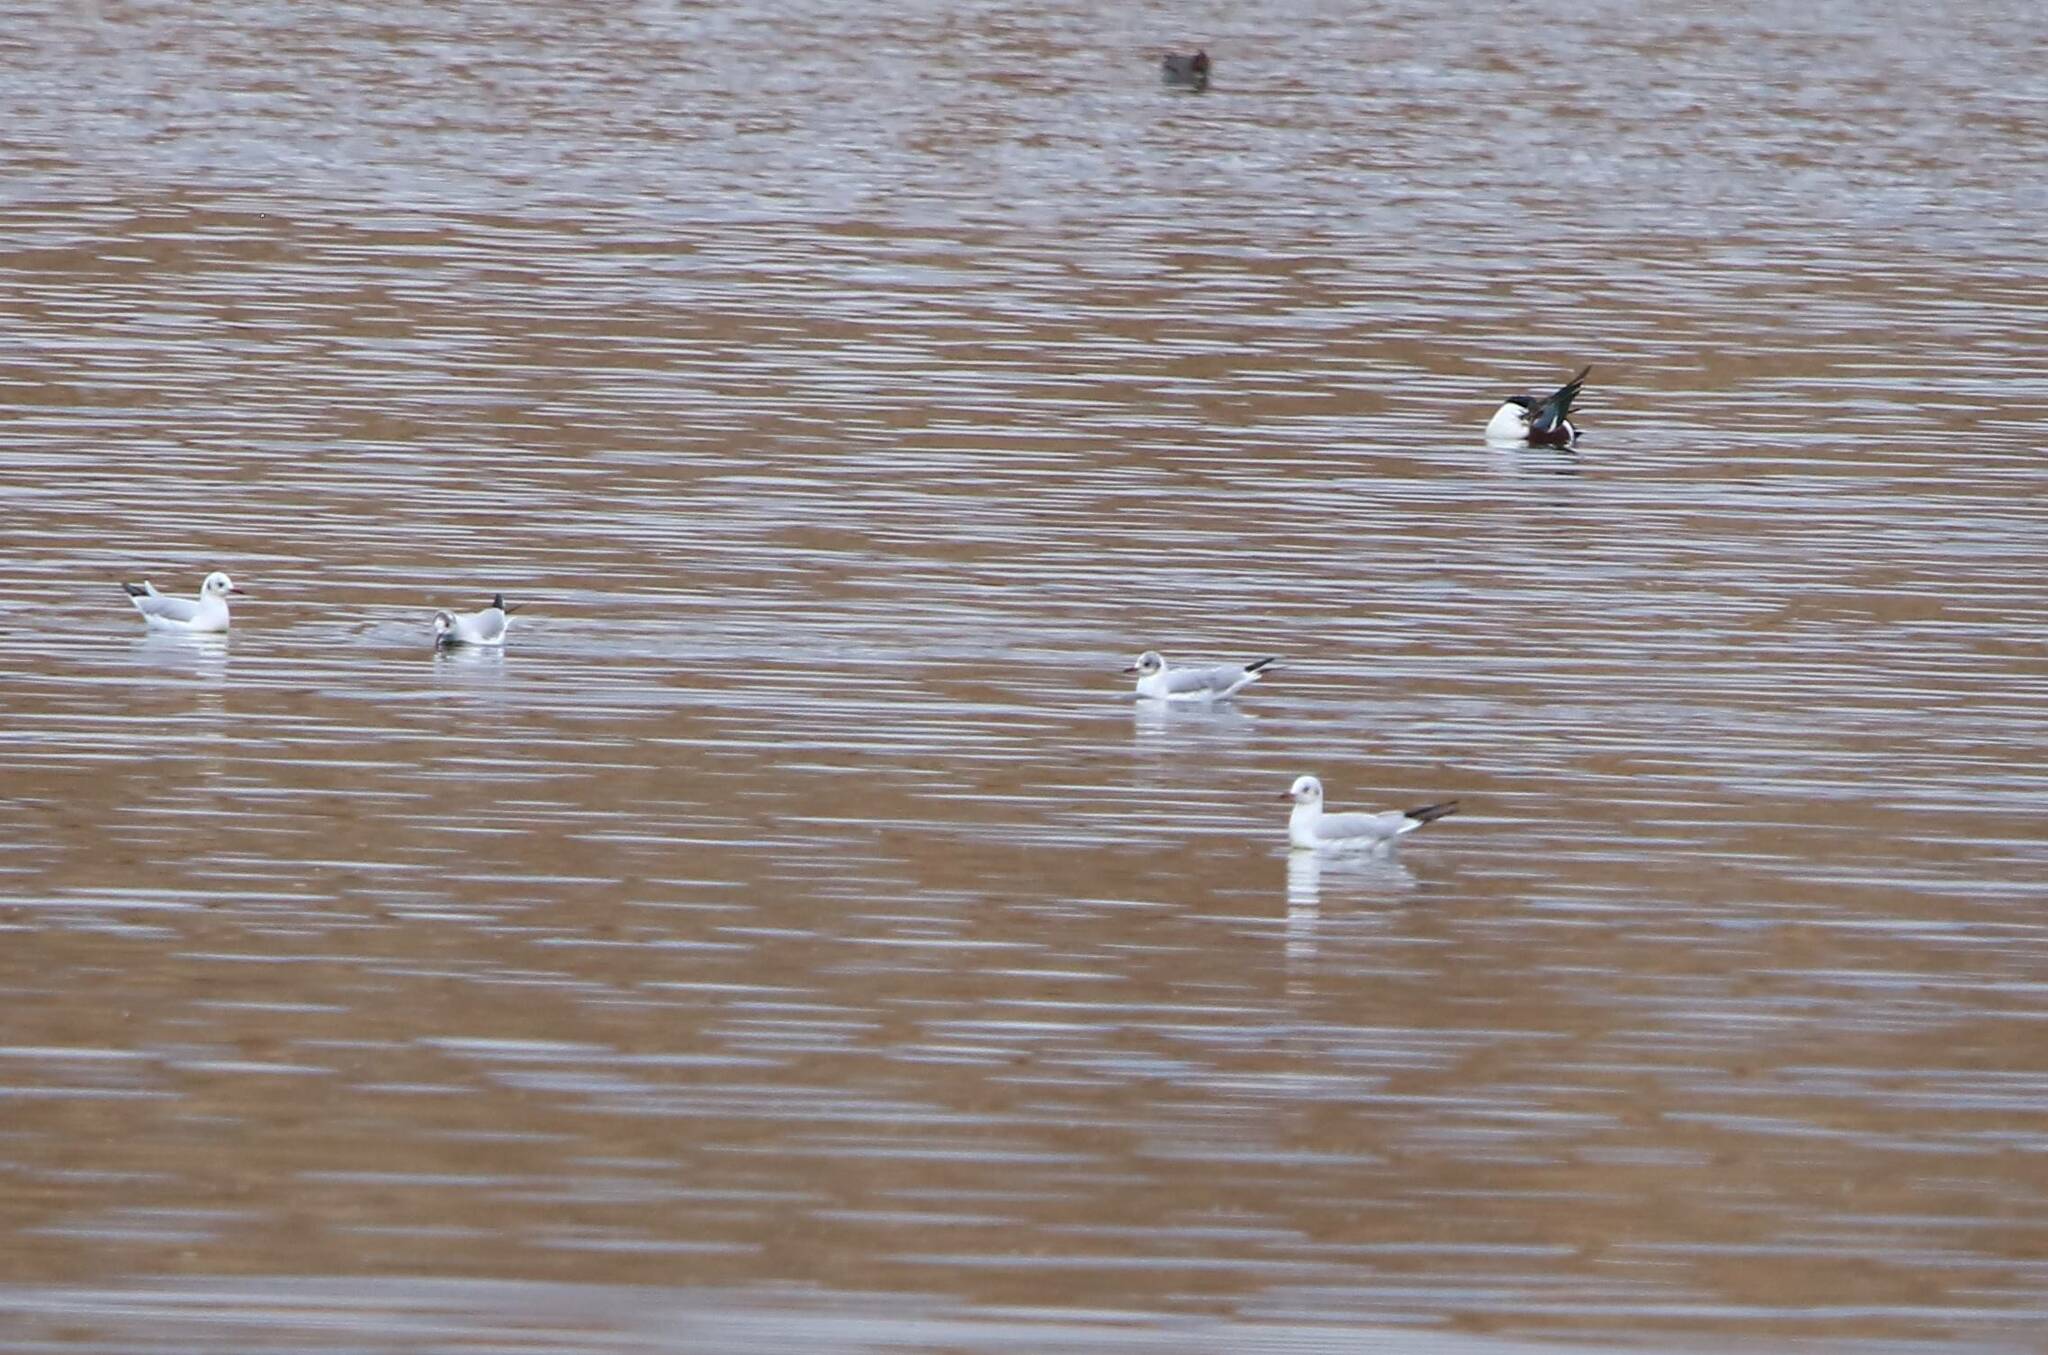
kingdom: Animalia
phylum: Chordata
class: Aves
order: Charadriiformes
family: Laridae
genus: Chroicocephalus
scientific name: Chroicocephalus ridibundus
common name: Black-headed gull
